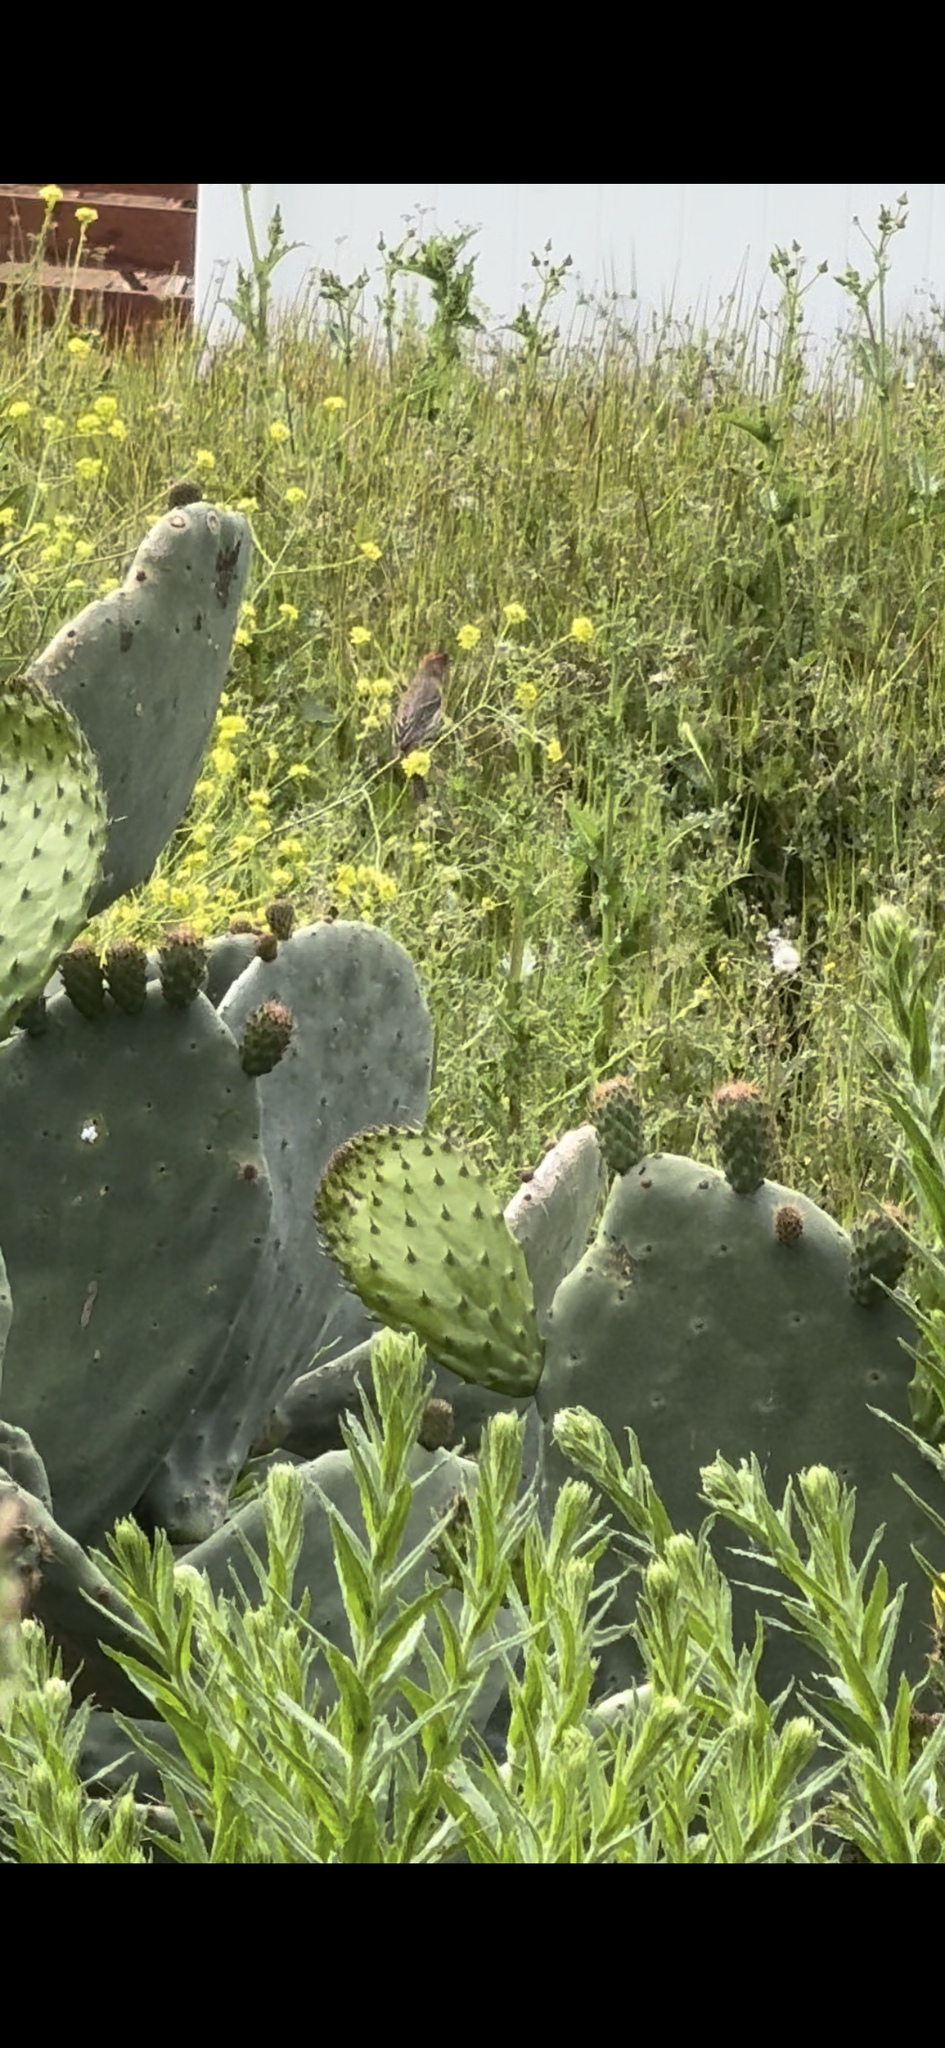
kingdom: Animalia
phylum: Chordata
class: Aves
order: Passeriformes
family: Fringillidae
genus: Haemorhous
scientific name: Haemorhous mexicanus
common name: House finch
